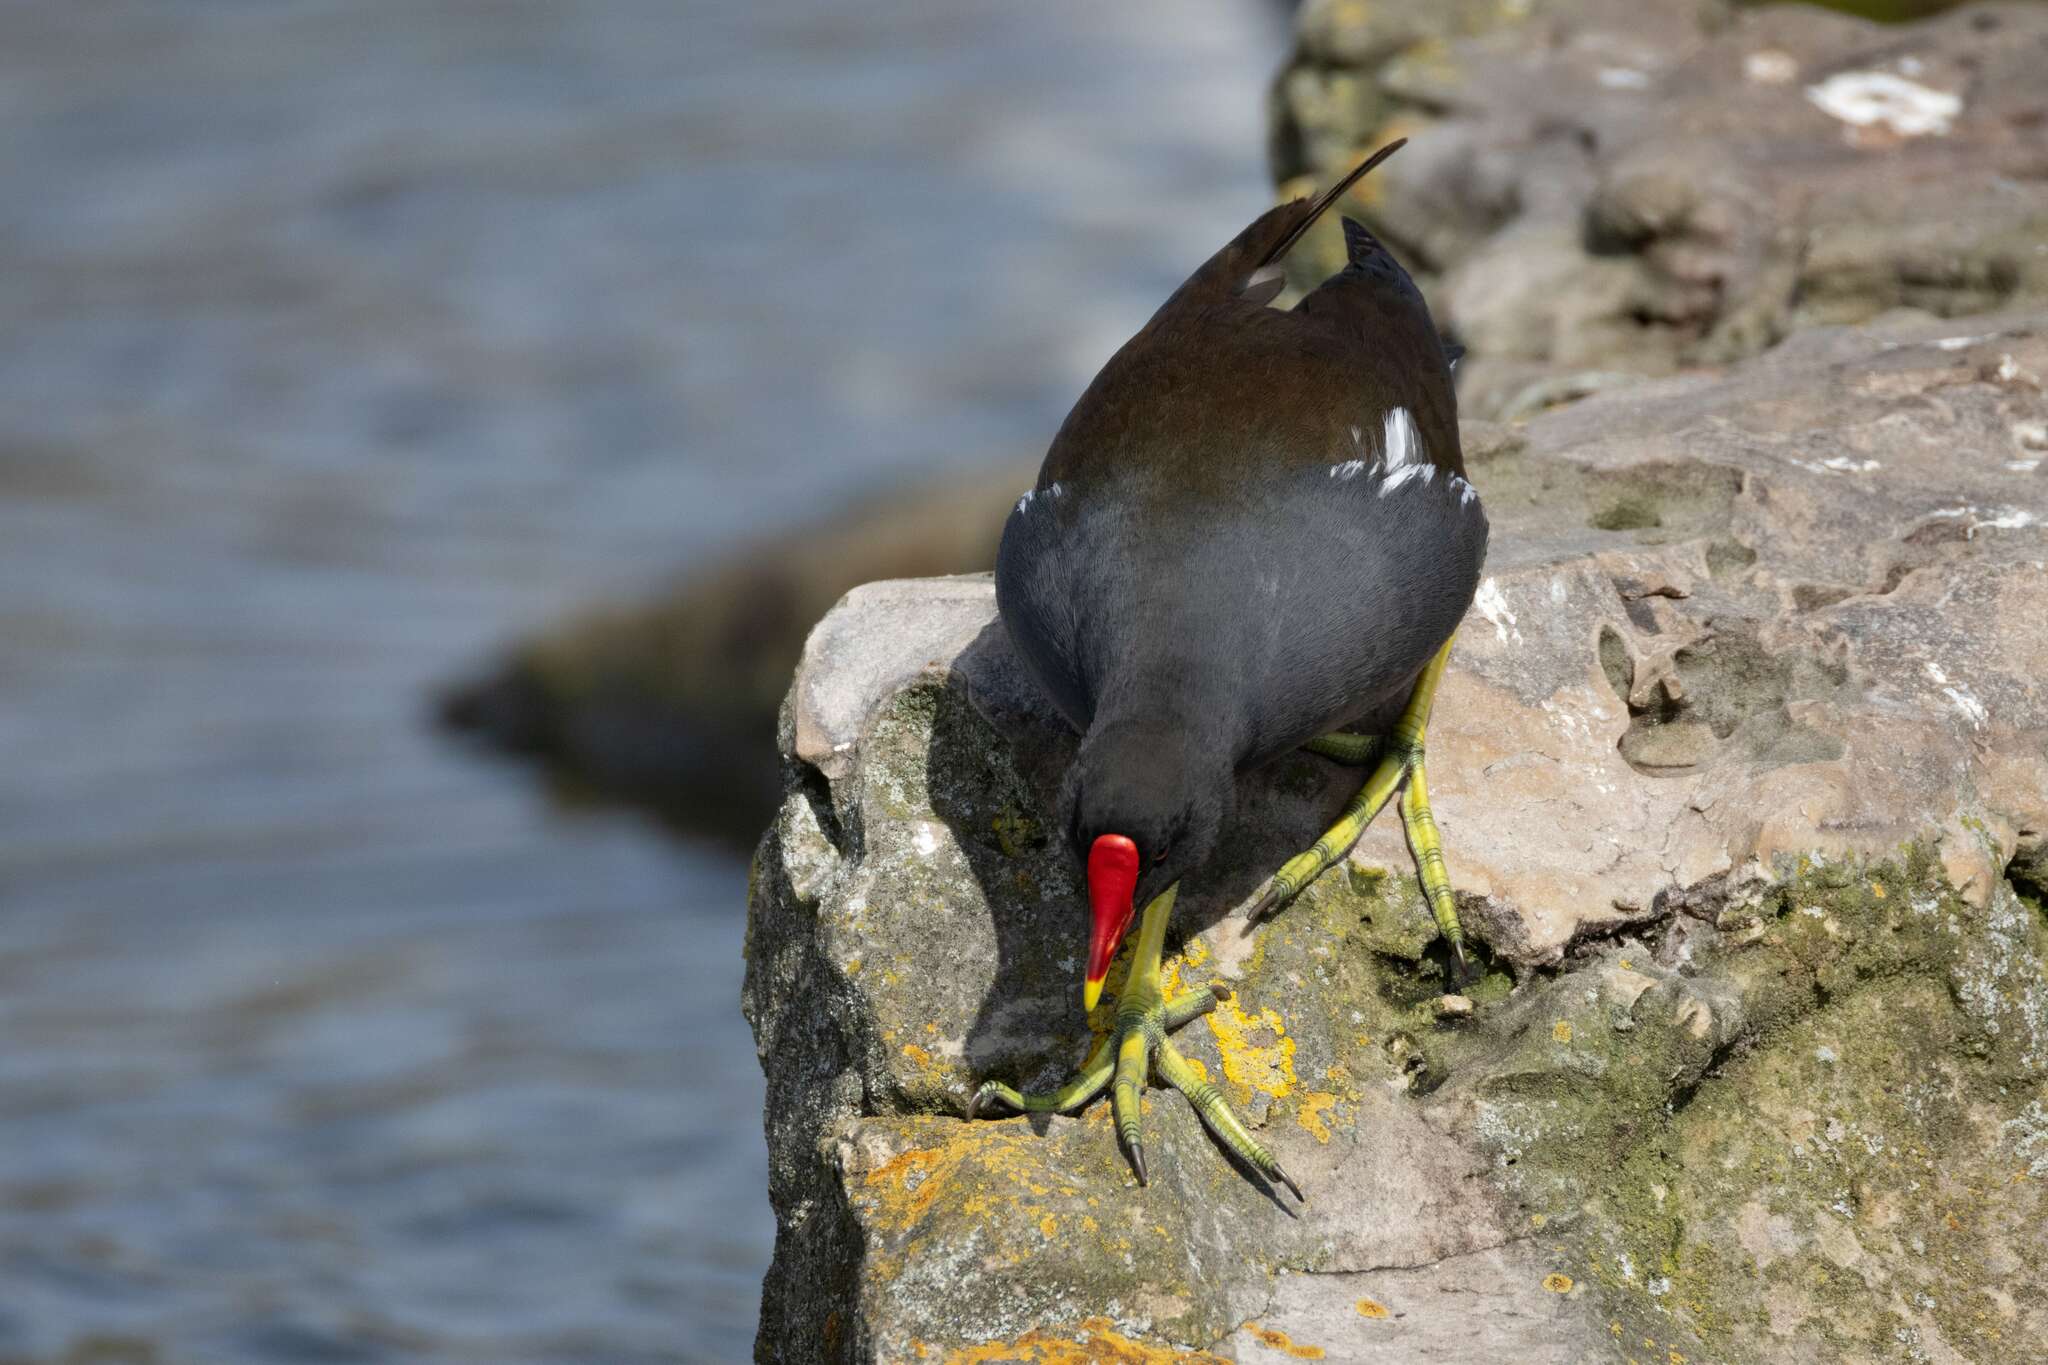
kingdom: Animalia
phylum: Chordata
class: Aves
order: Gruiformes
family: Rallidae
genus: Gallinula
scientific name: Gallinula chloropus
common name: Common moorhen
